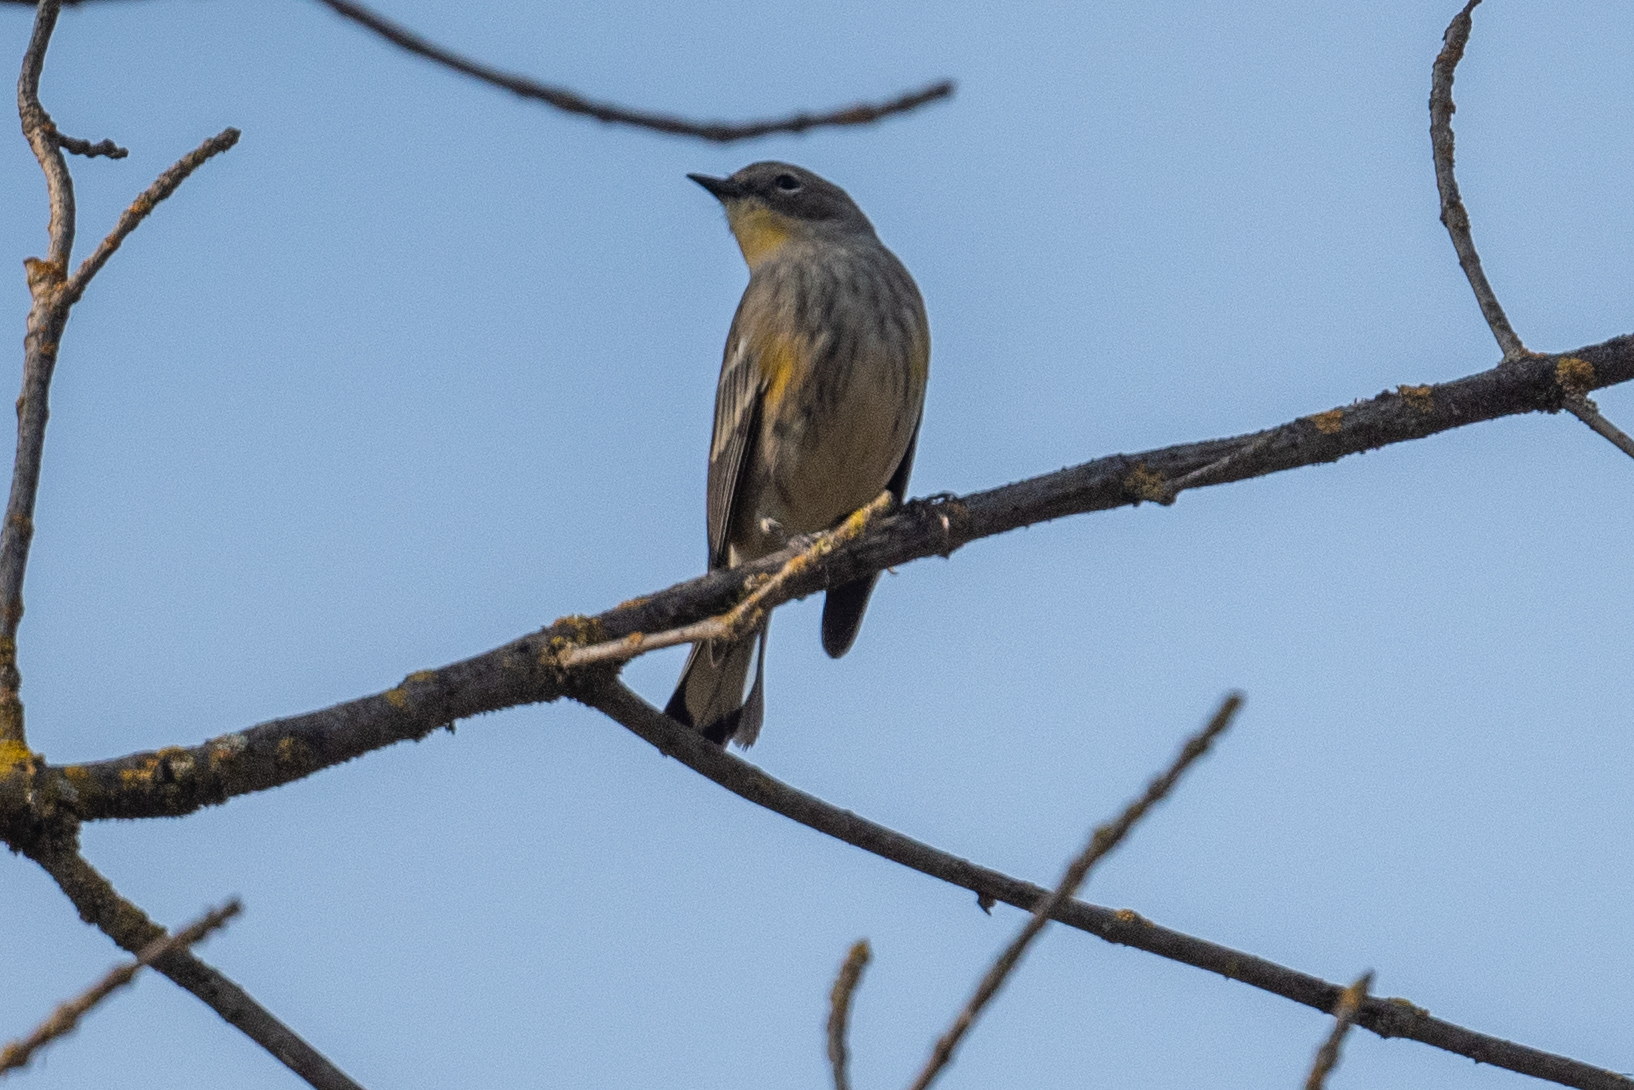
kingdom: Animalia
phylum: Chordata
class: Aves
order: Passeriformes
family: Parulidae
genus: Setophaga
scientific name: Setophaga coronata
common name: Myrtle warbler
